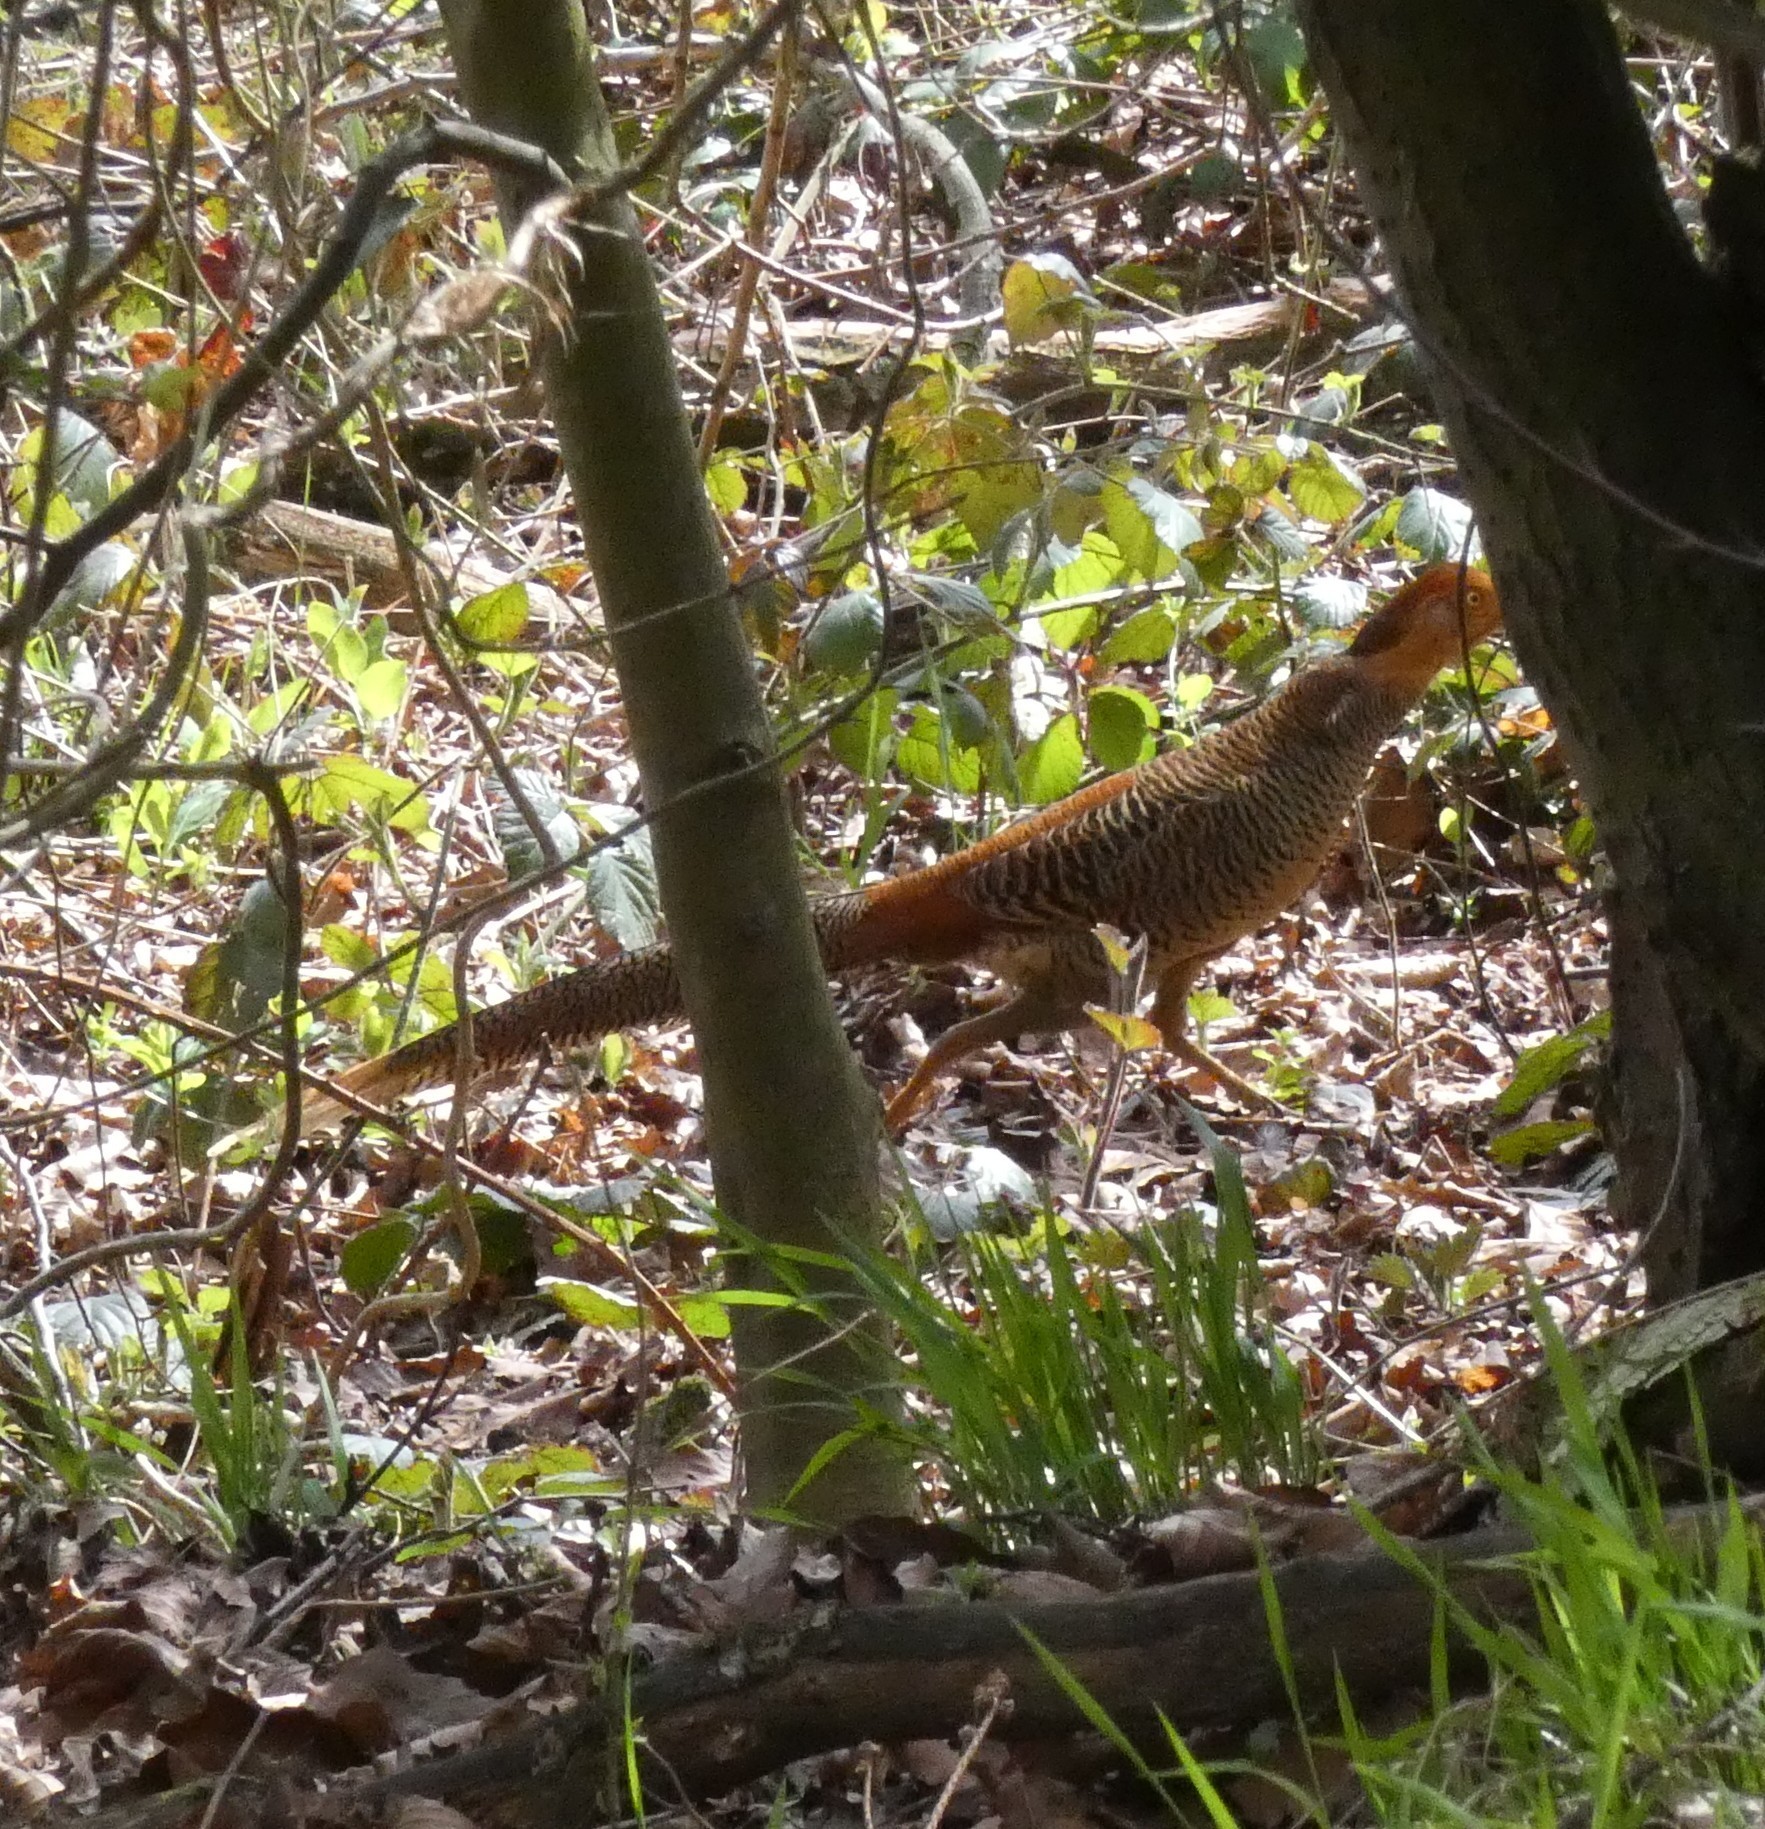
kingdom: Animalia
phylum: Chordata
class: Aves
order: Galliformes
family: Phasianidae
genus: Chrysolophus
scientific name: Chrysolophus pictus
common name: Golden pheasant
